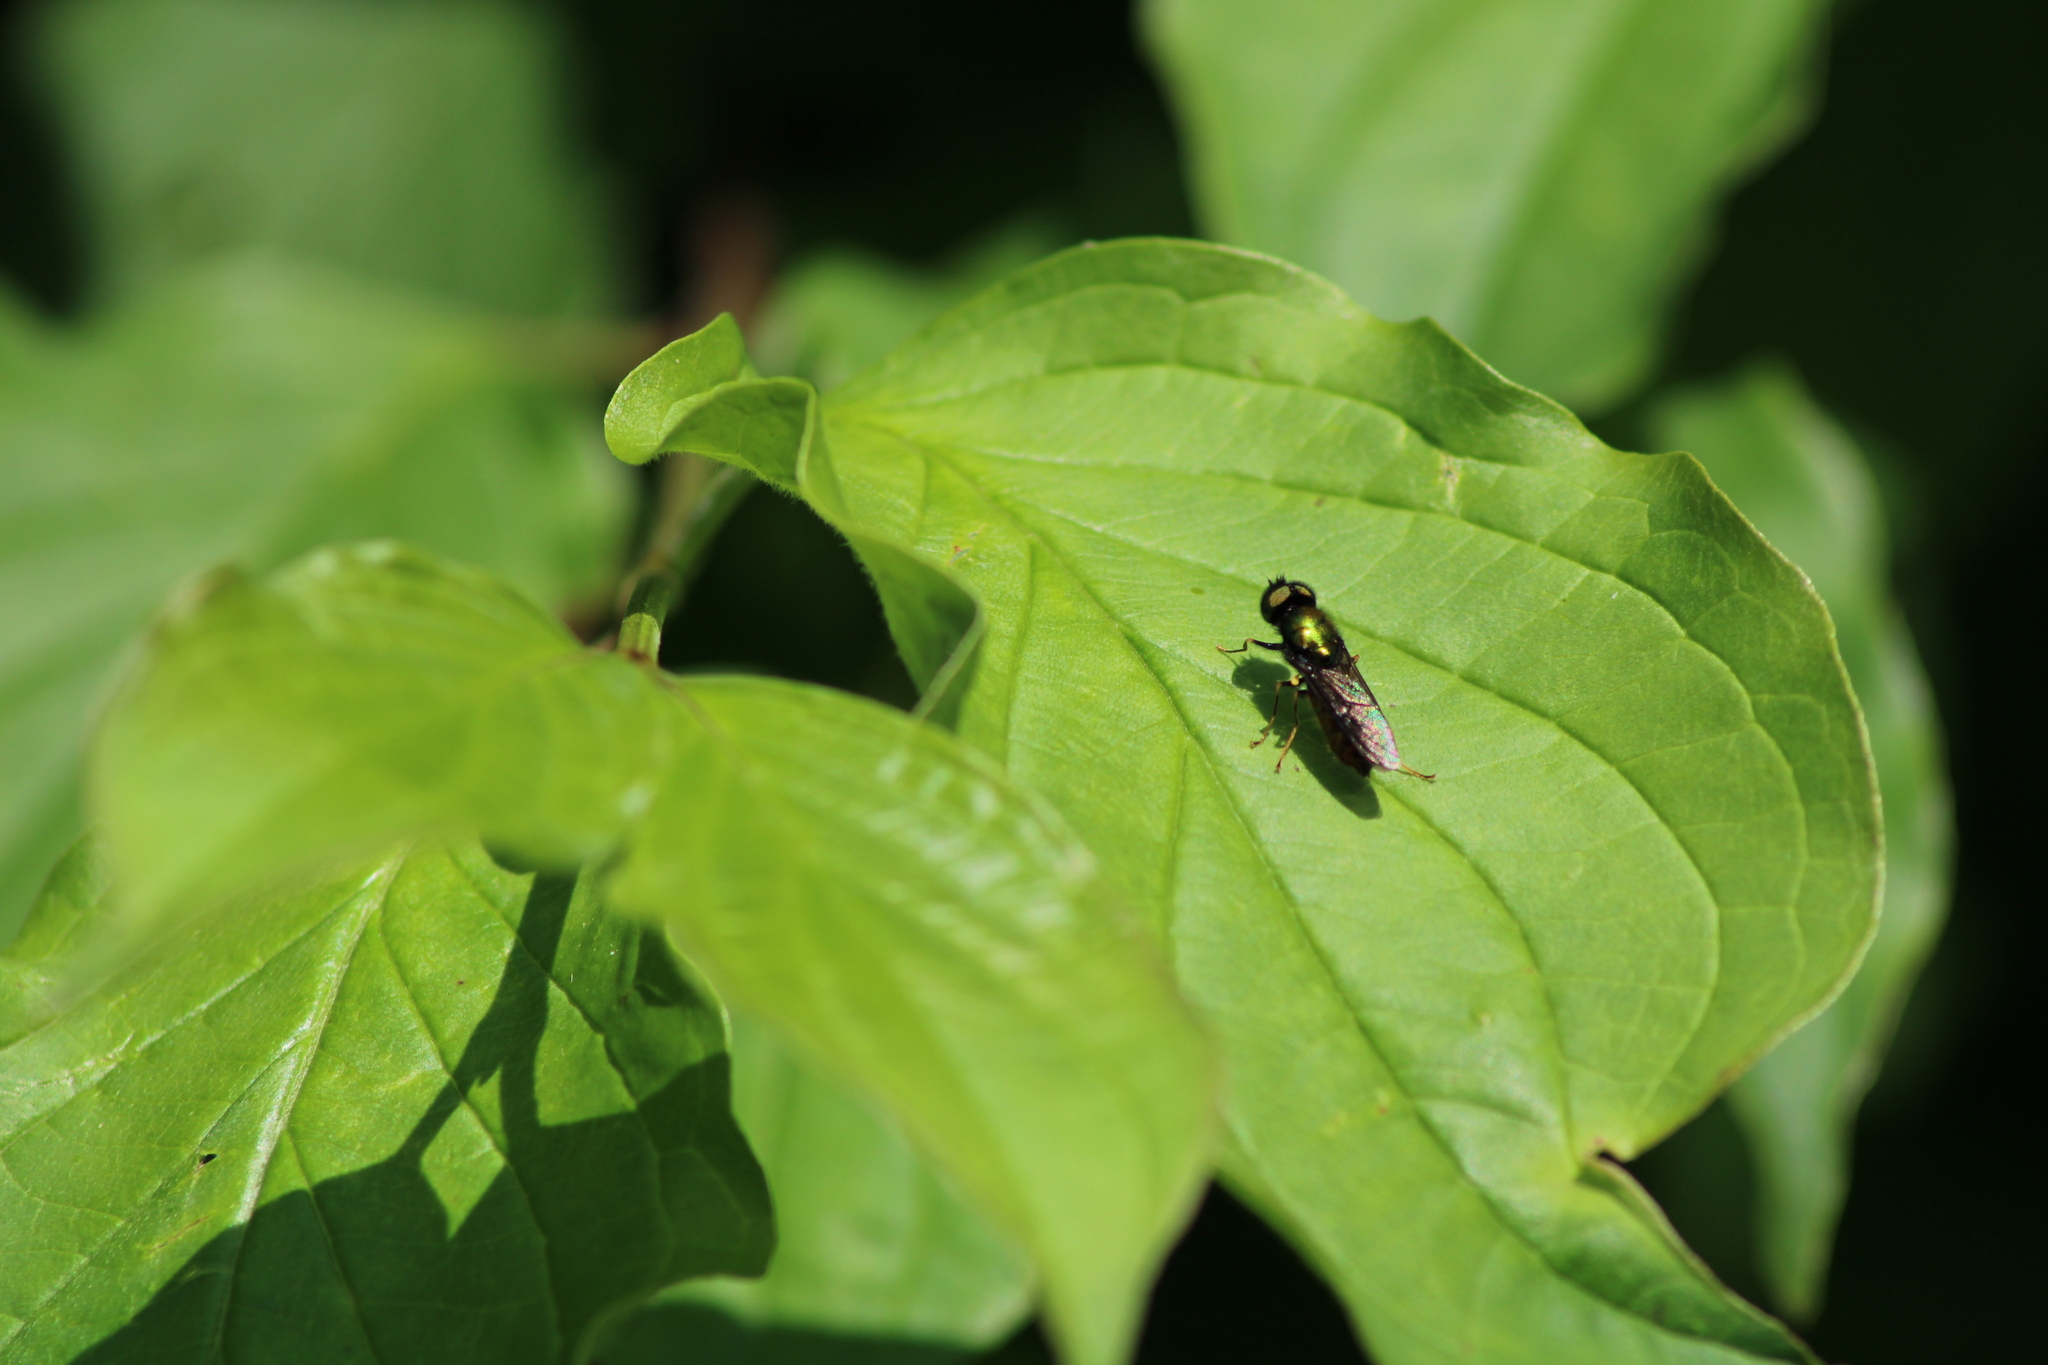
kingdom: Animalia
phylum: Arthropoda
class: Insecta
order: Diptera
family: Stratiomyidae
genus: Chloromyia
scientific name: Chloromyia formosa
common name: Soldier fly
